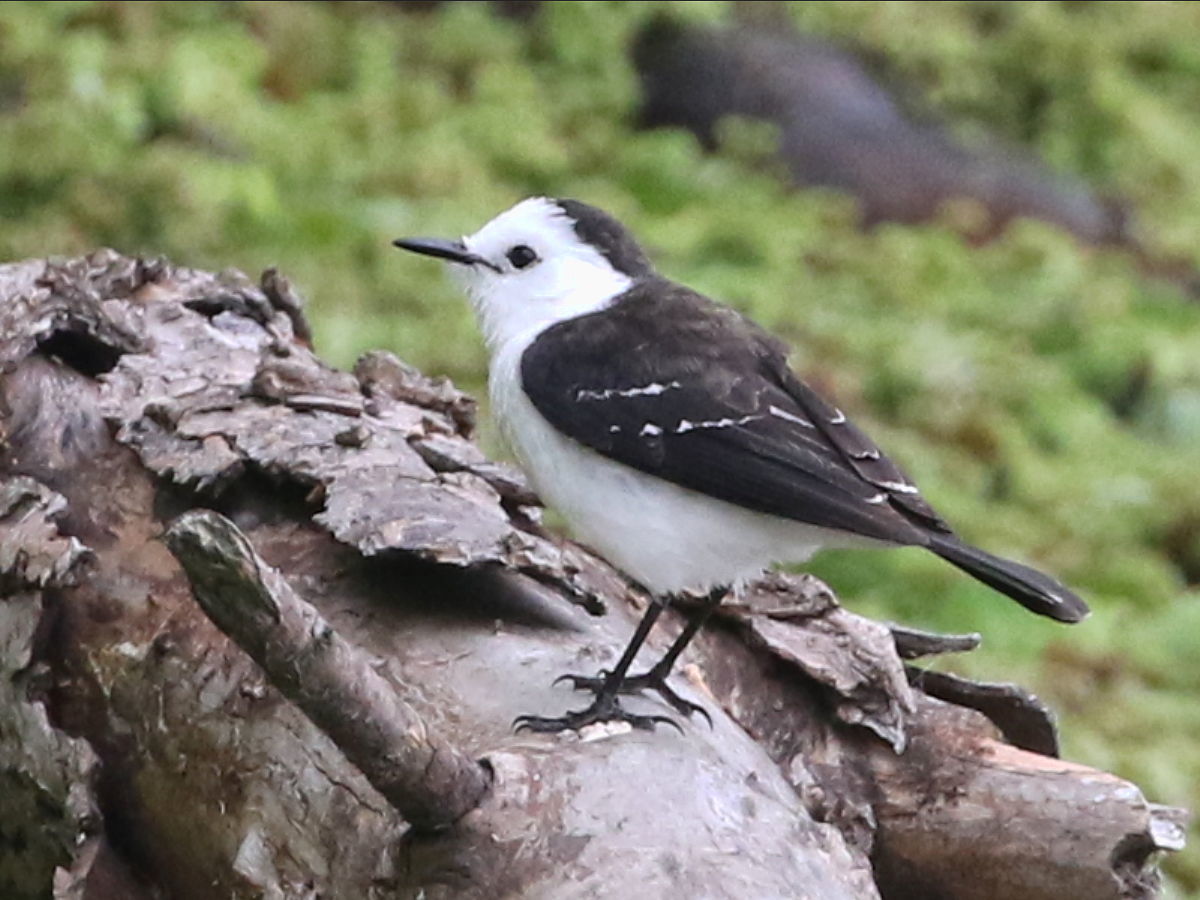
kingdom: Animalia
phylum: Chordata
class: Aves
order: Passeriformes
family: Tyrannidae
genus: Fluvicola
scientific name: Fluvicola pica
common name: Pied water-tyrant
